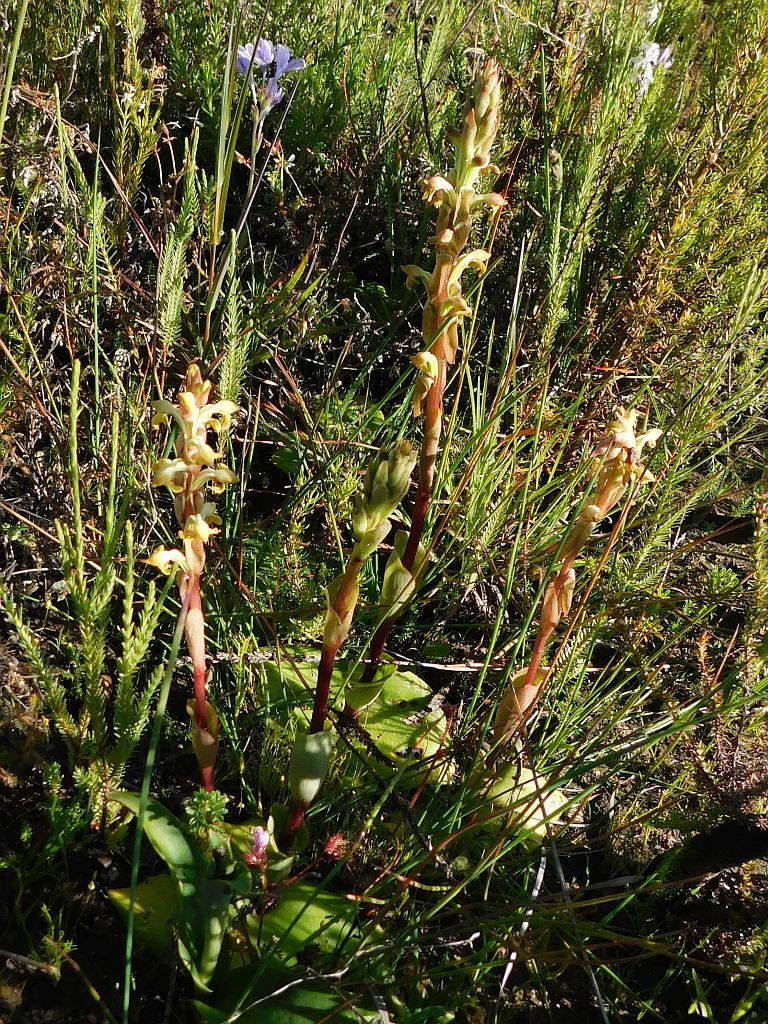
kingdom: Plantae
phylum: Tracheophyta
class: Liliopsida
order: Asparagales
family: Orchidaceae
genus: Satyrium
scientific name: Satyrium bicorne
